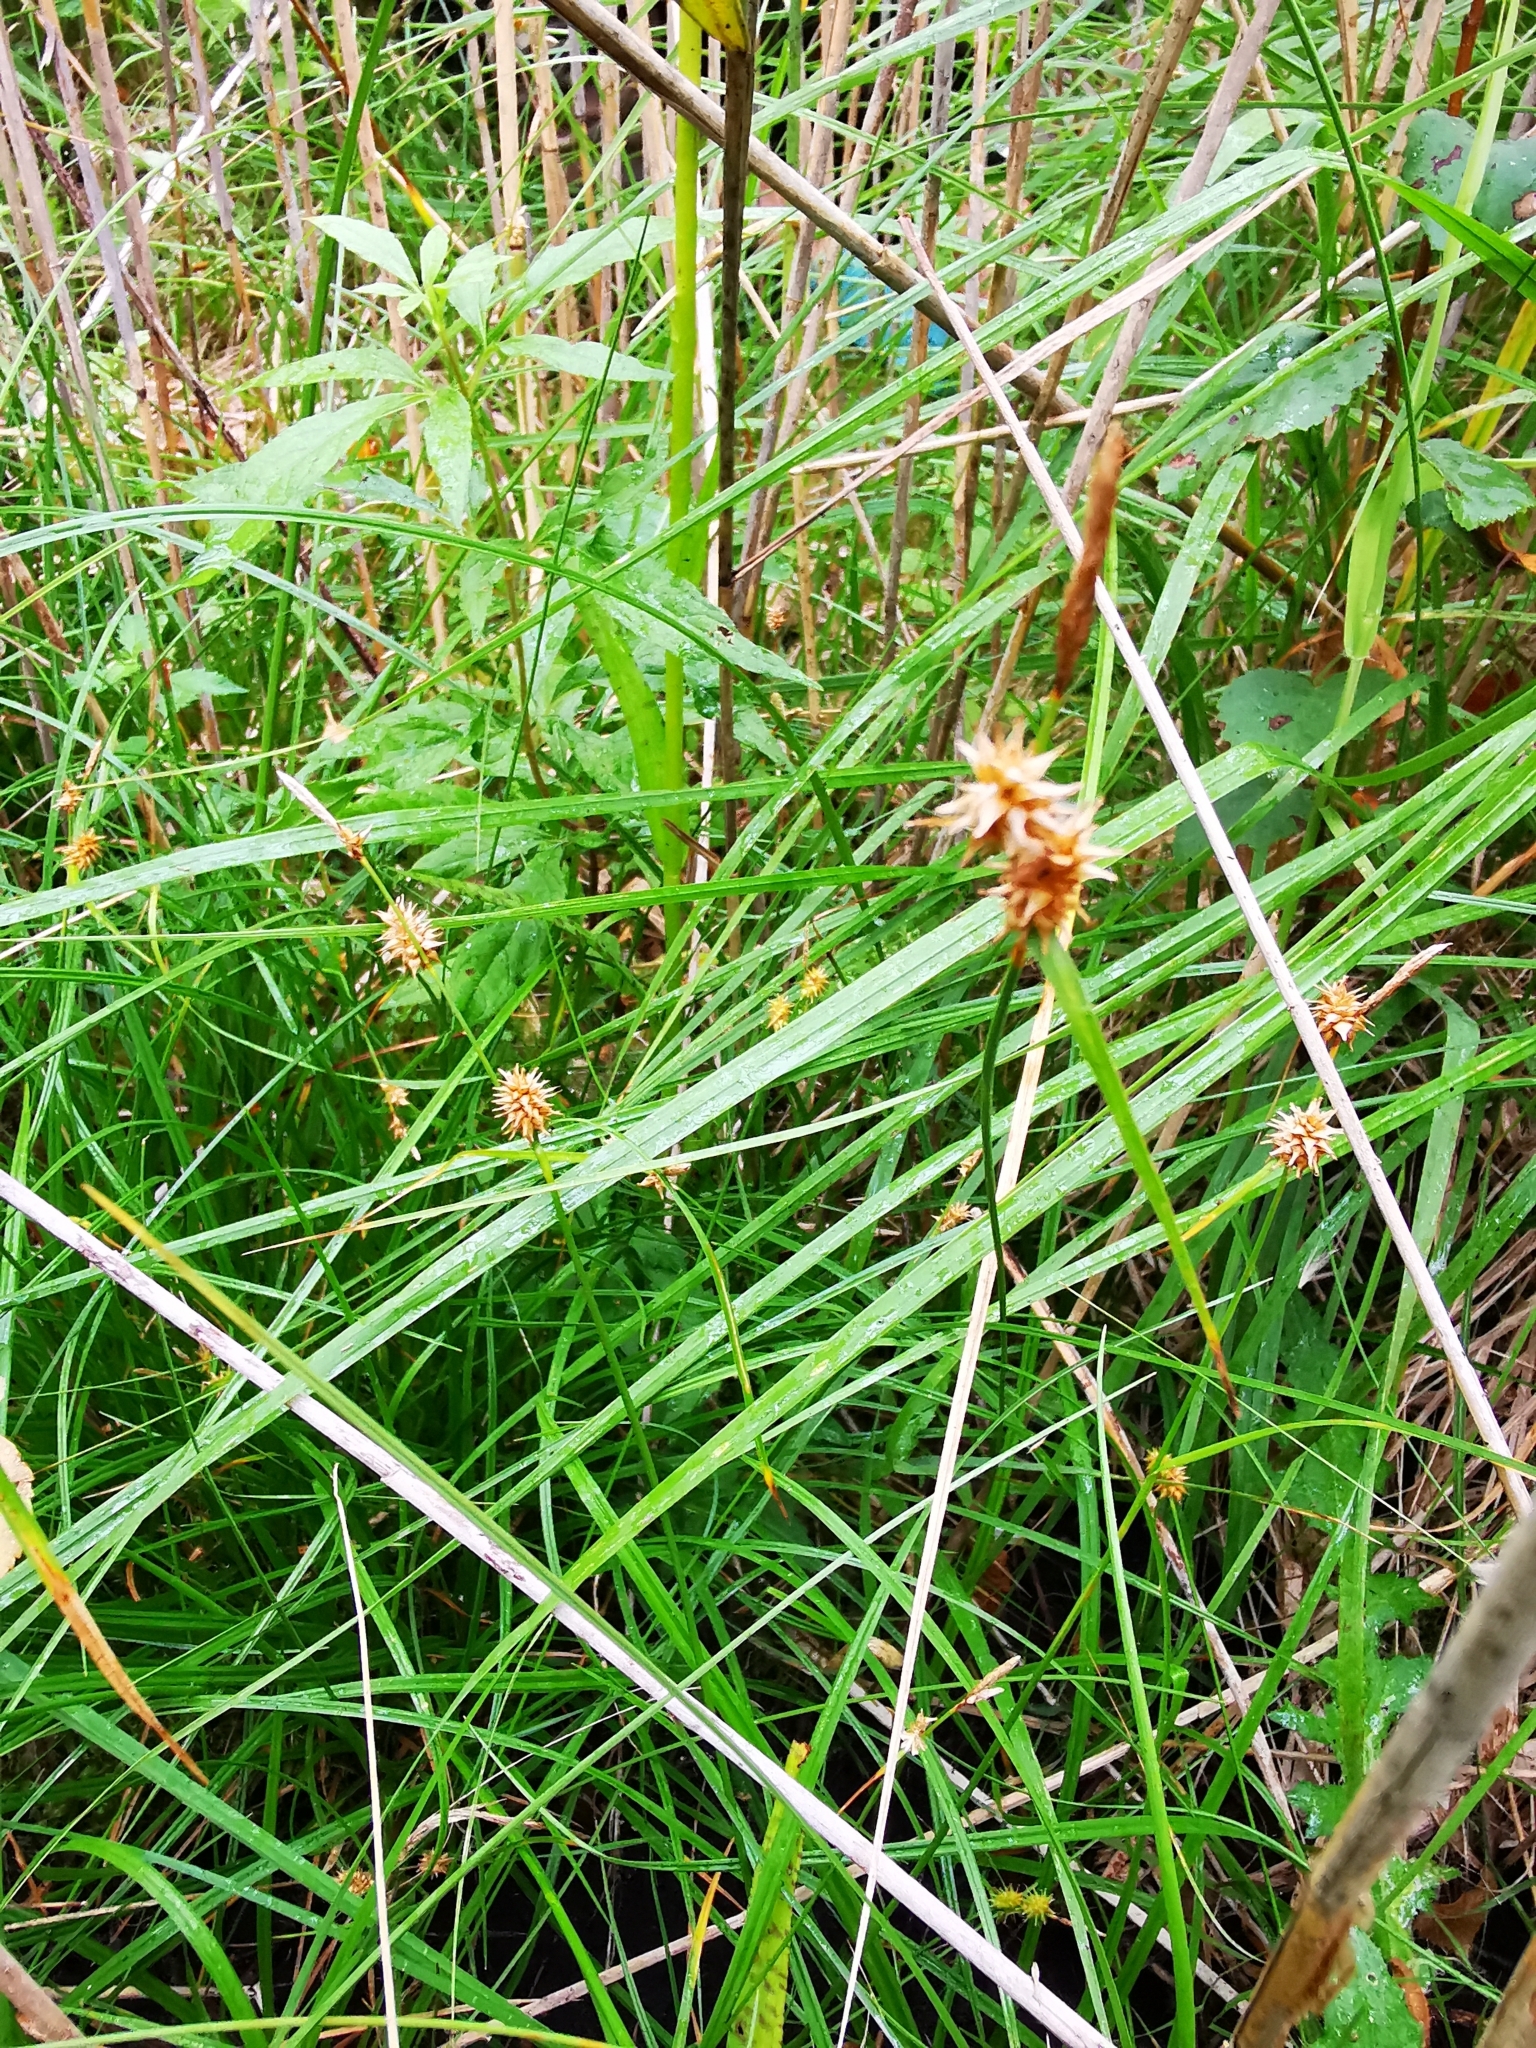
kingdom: Plantae
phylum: Tracheophyta
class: Liliopsida
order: Poales
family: Cyperaceae
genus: Carex
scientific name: Carex lepidocarpa
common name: Long-stalked yellow-sedge
